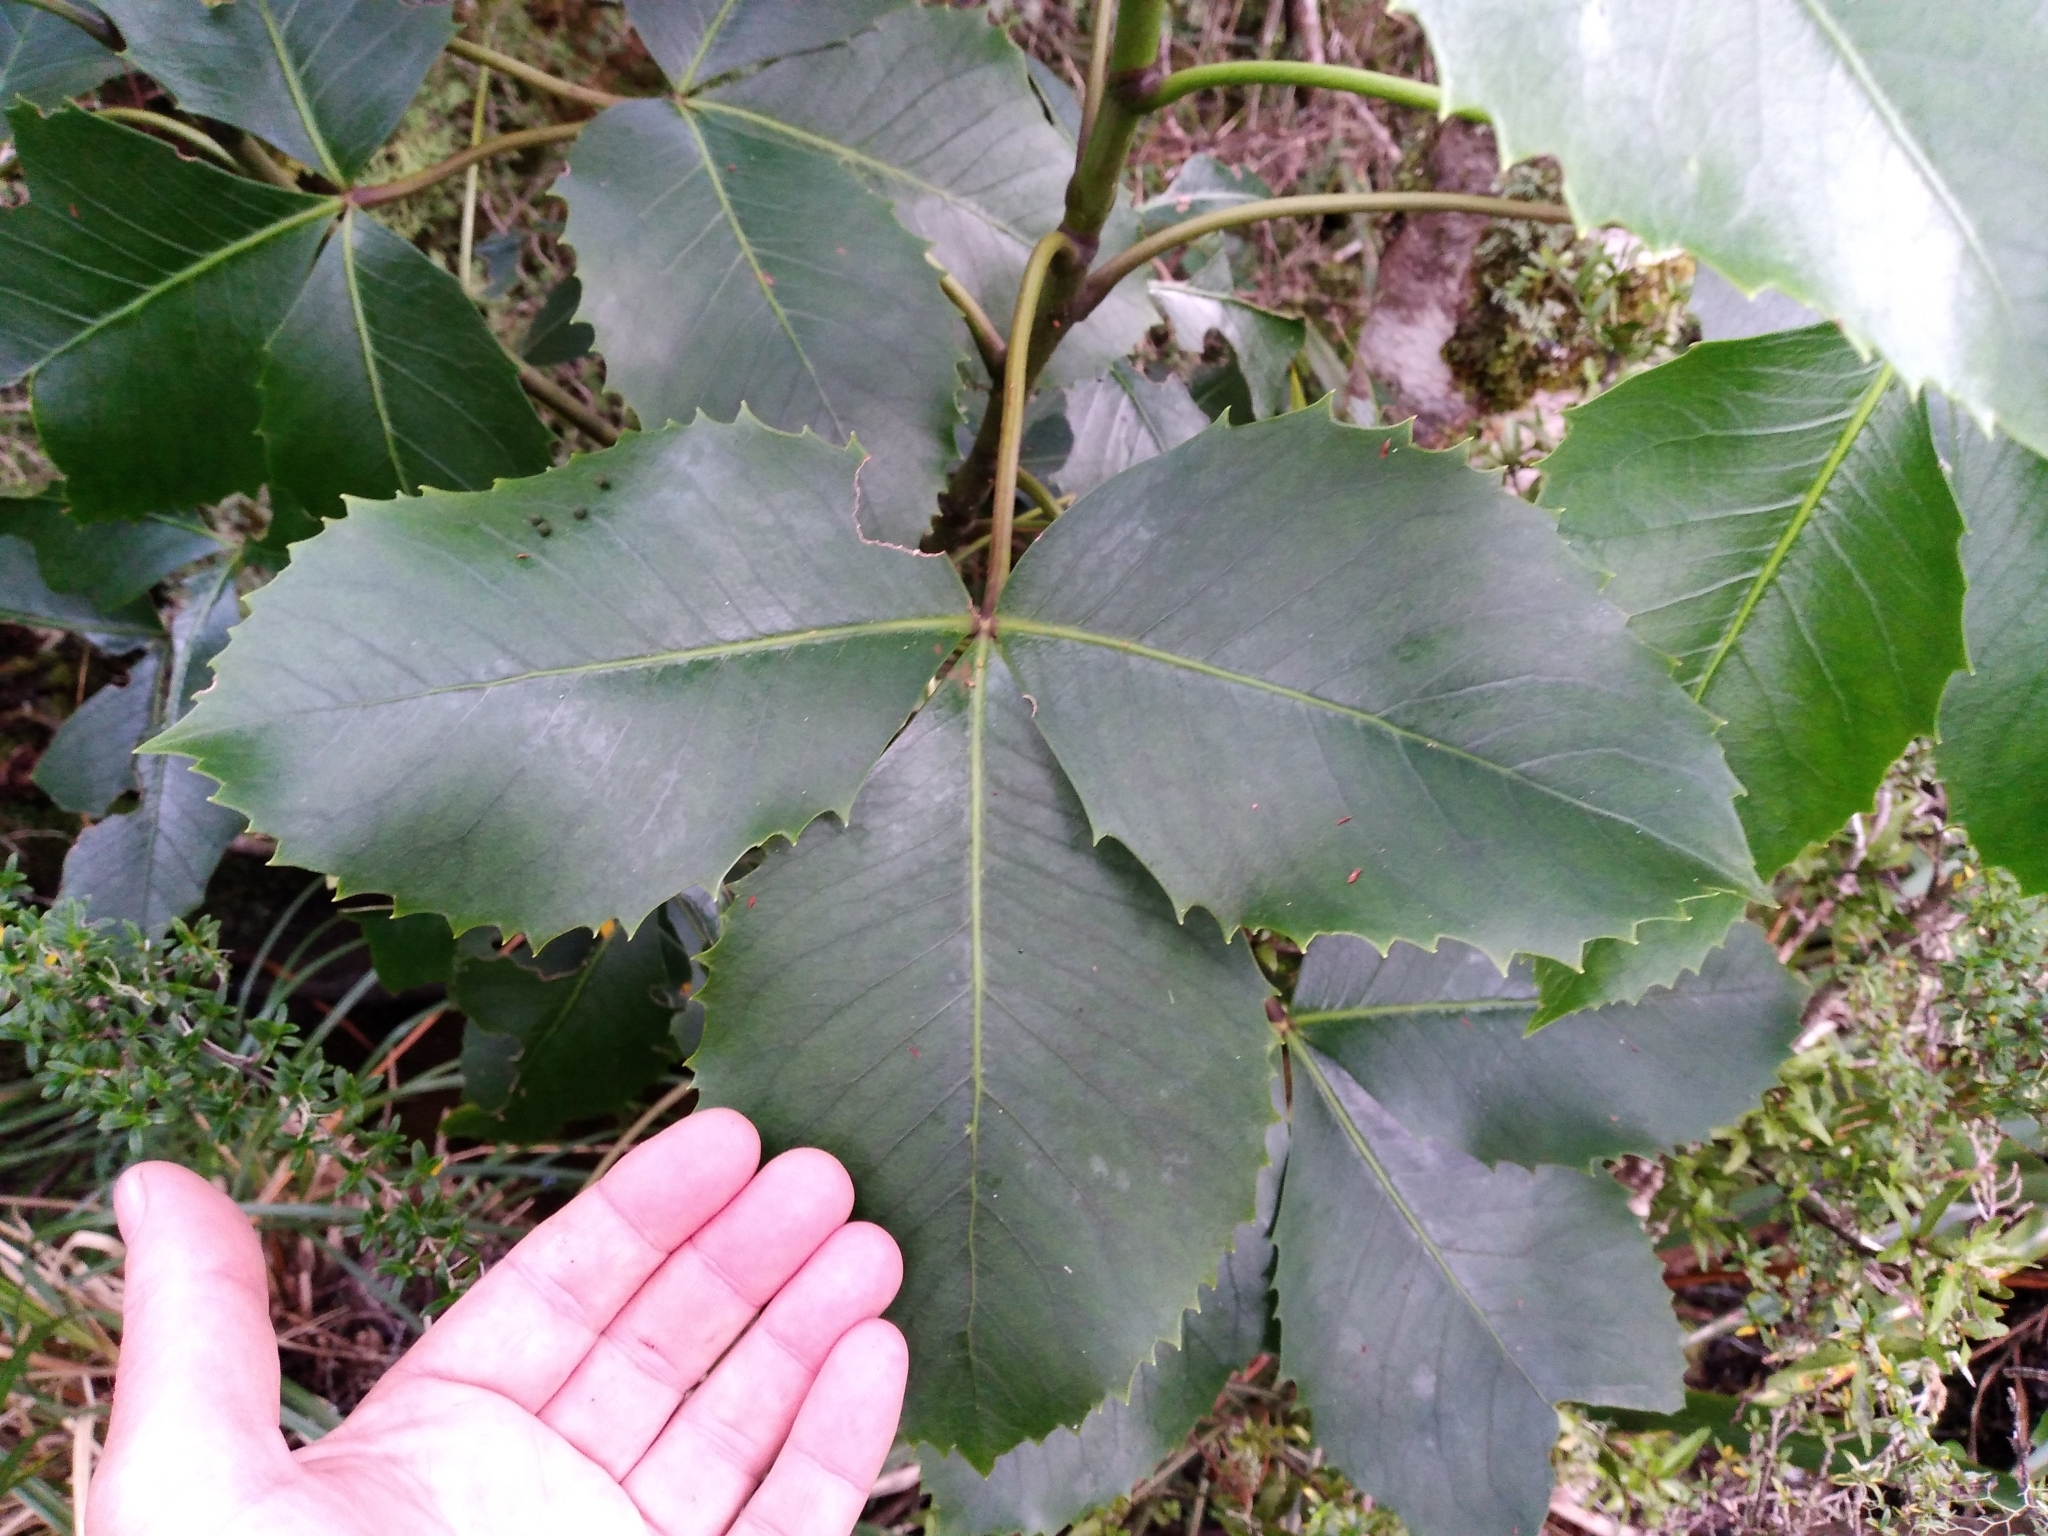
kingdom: Plantae
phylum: Tracheophyta
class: Magnoliopsida
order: Apiales
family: Araliaceae
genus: Neopanax
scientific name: Neopanax colensoi
